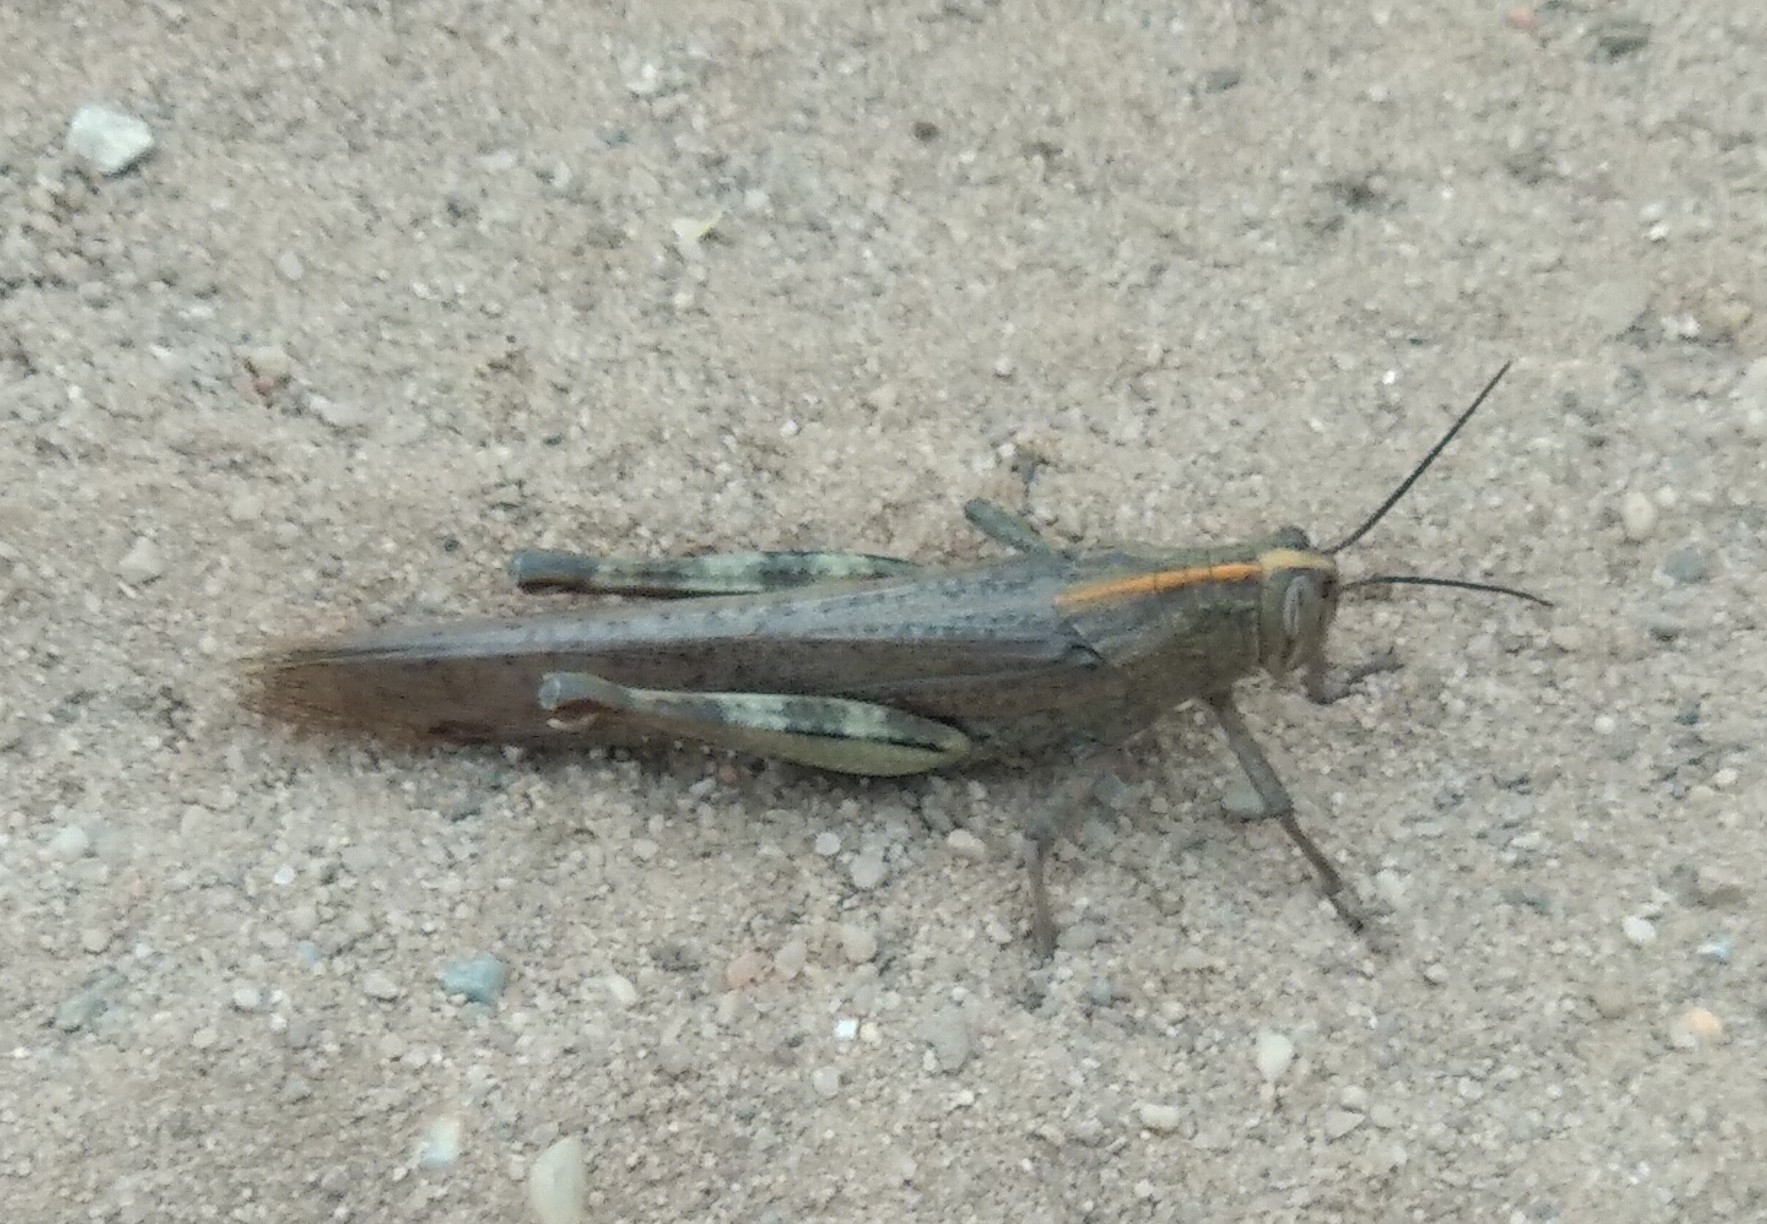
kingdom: Animalia
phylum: Arthropoda
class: Insecta
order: Orthoptera
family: Acrididae
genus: Anacridium
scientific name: Anacridium aegyptium
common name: Egyptian grasshopper
